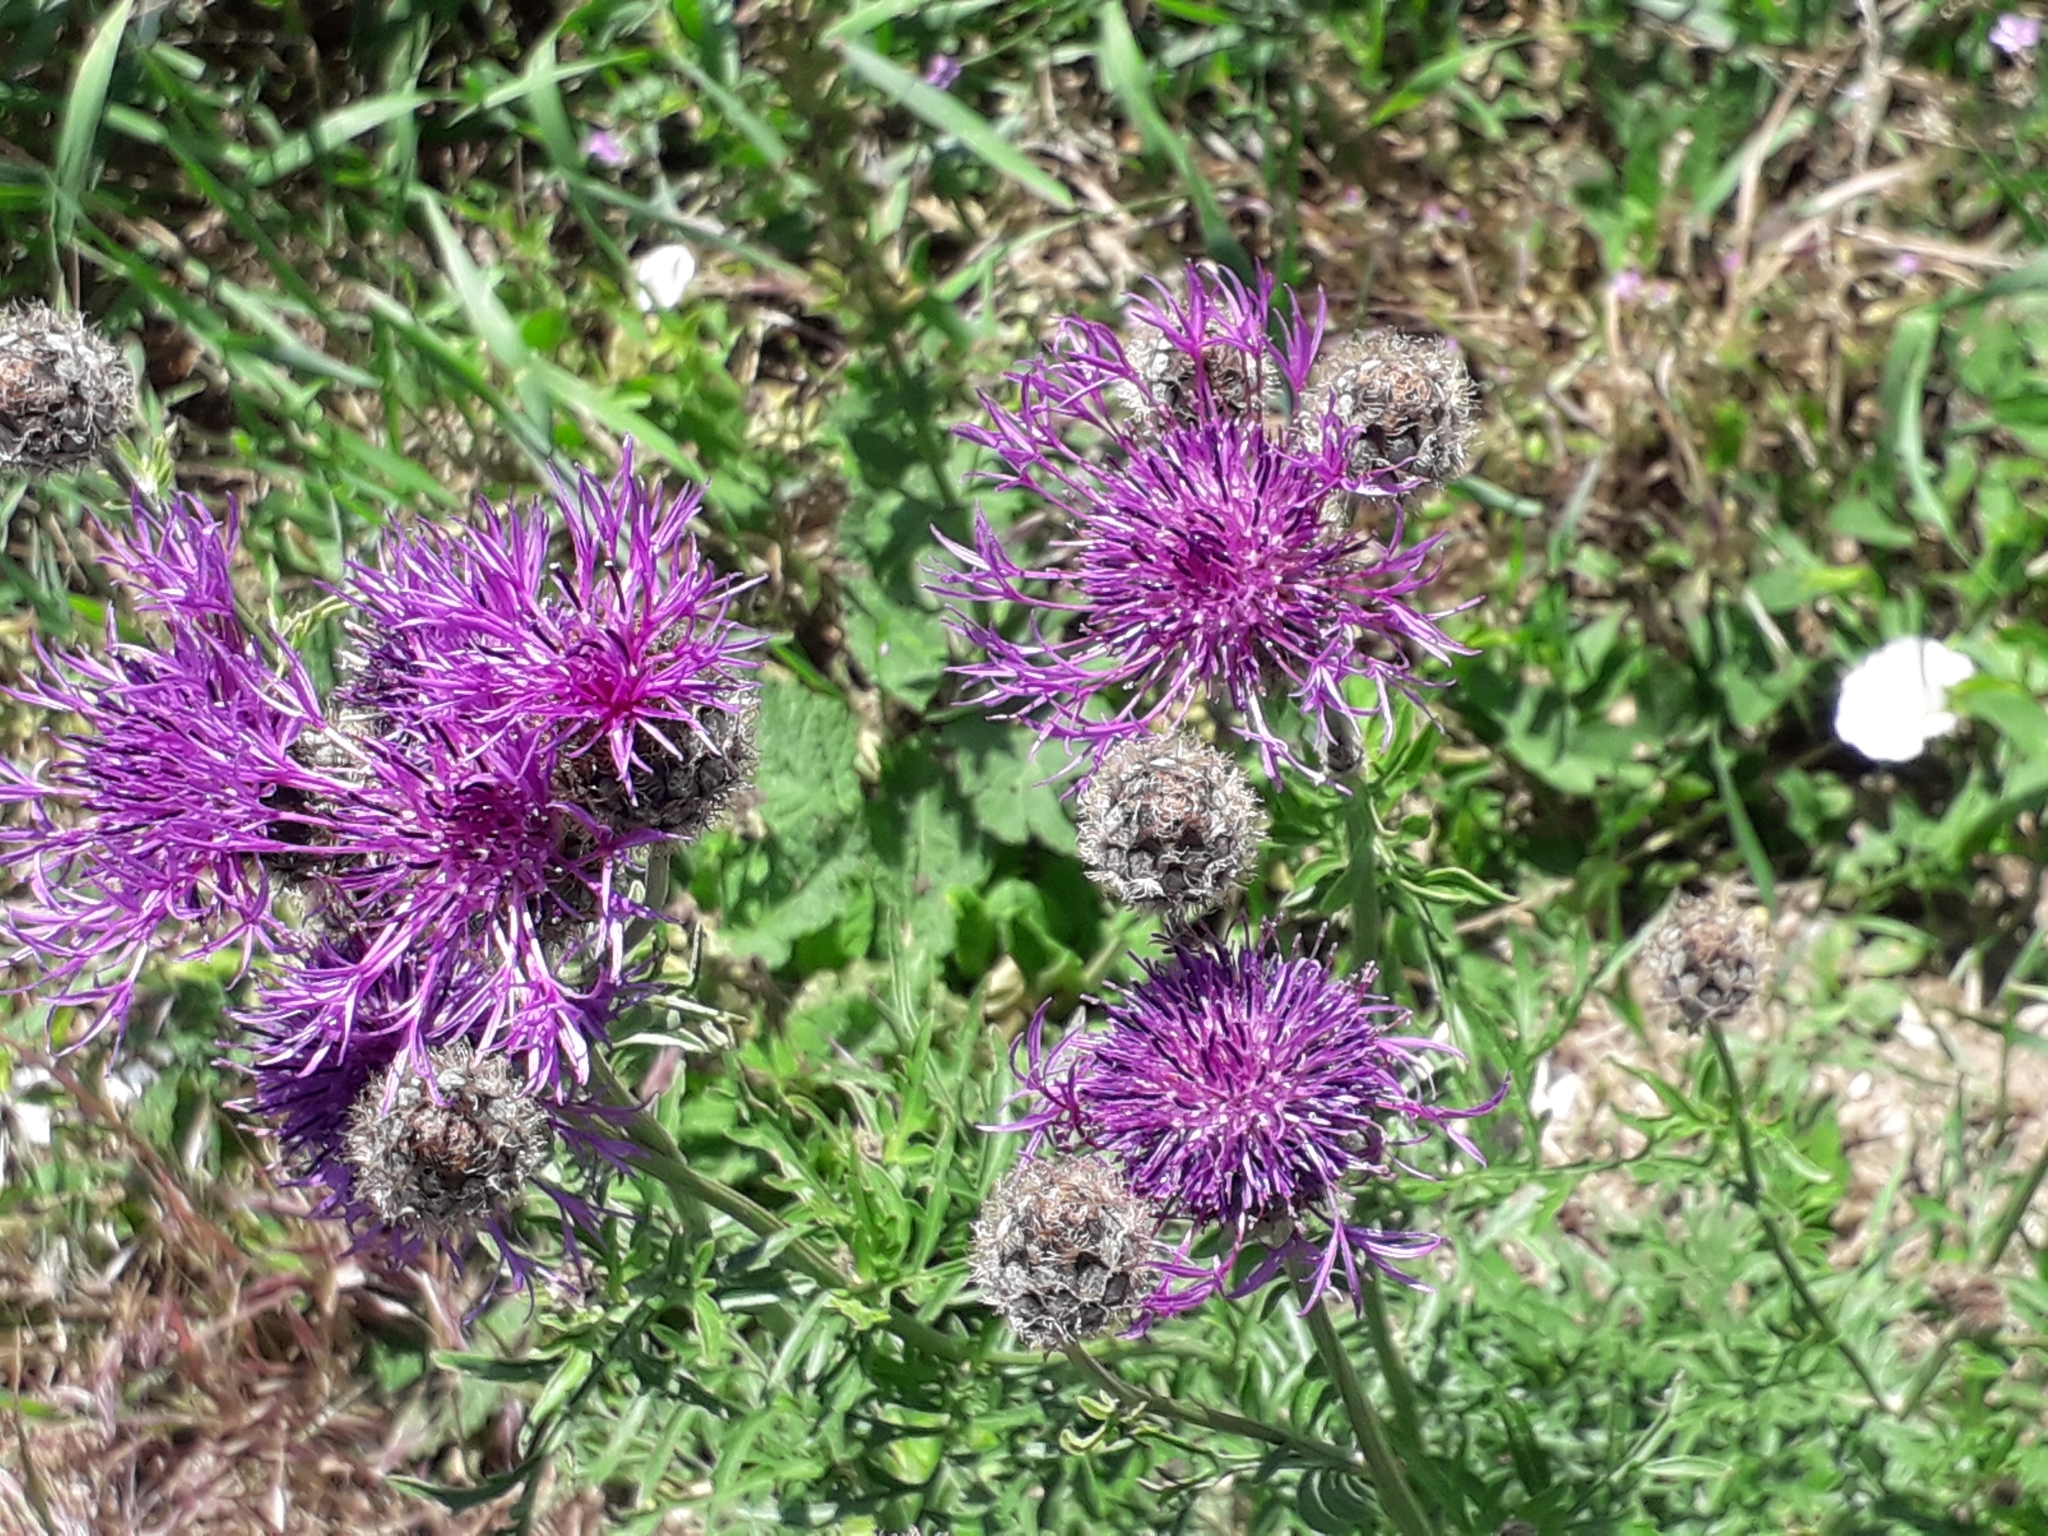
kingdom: Plantae
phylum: Tracheophyta
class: Magnoliopsida
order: Asterales
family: Asteraceae
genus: Centaurea
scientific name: Centaurea scabiosa
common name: Greater knapweed
